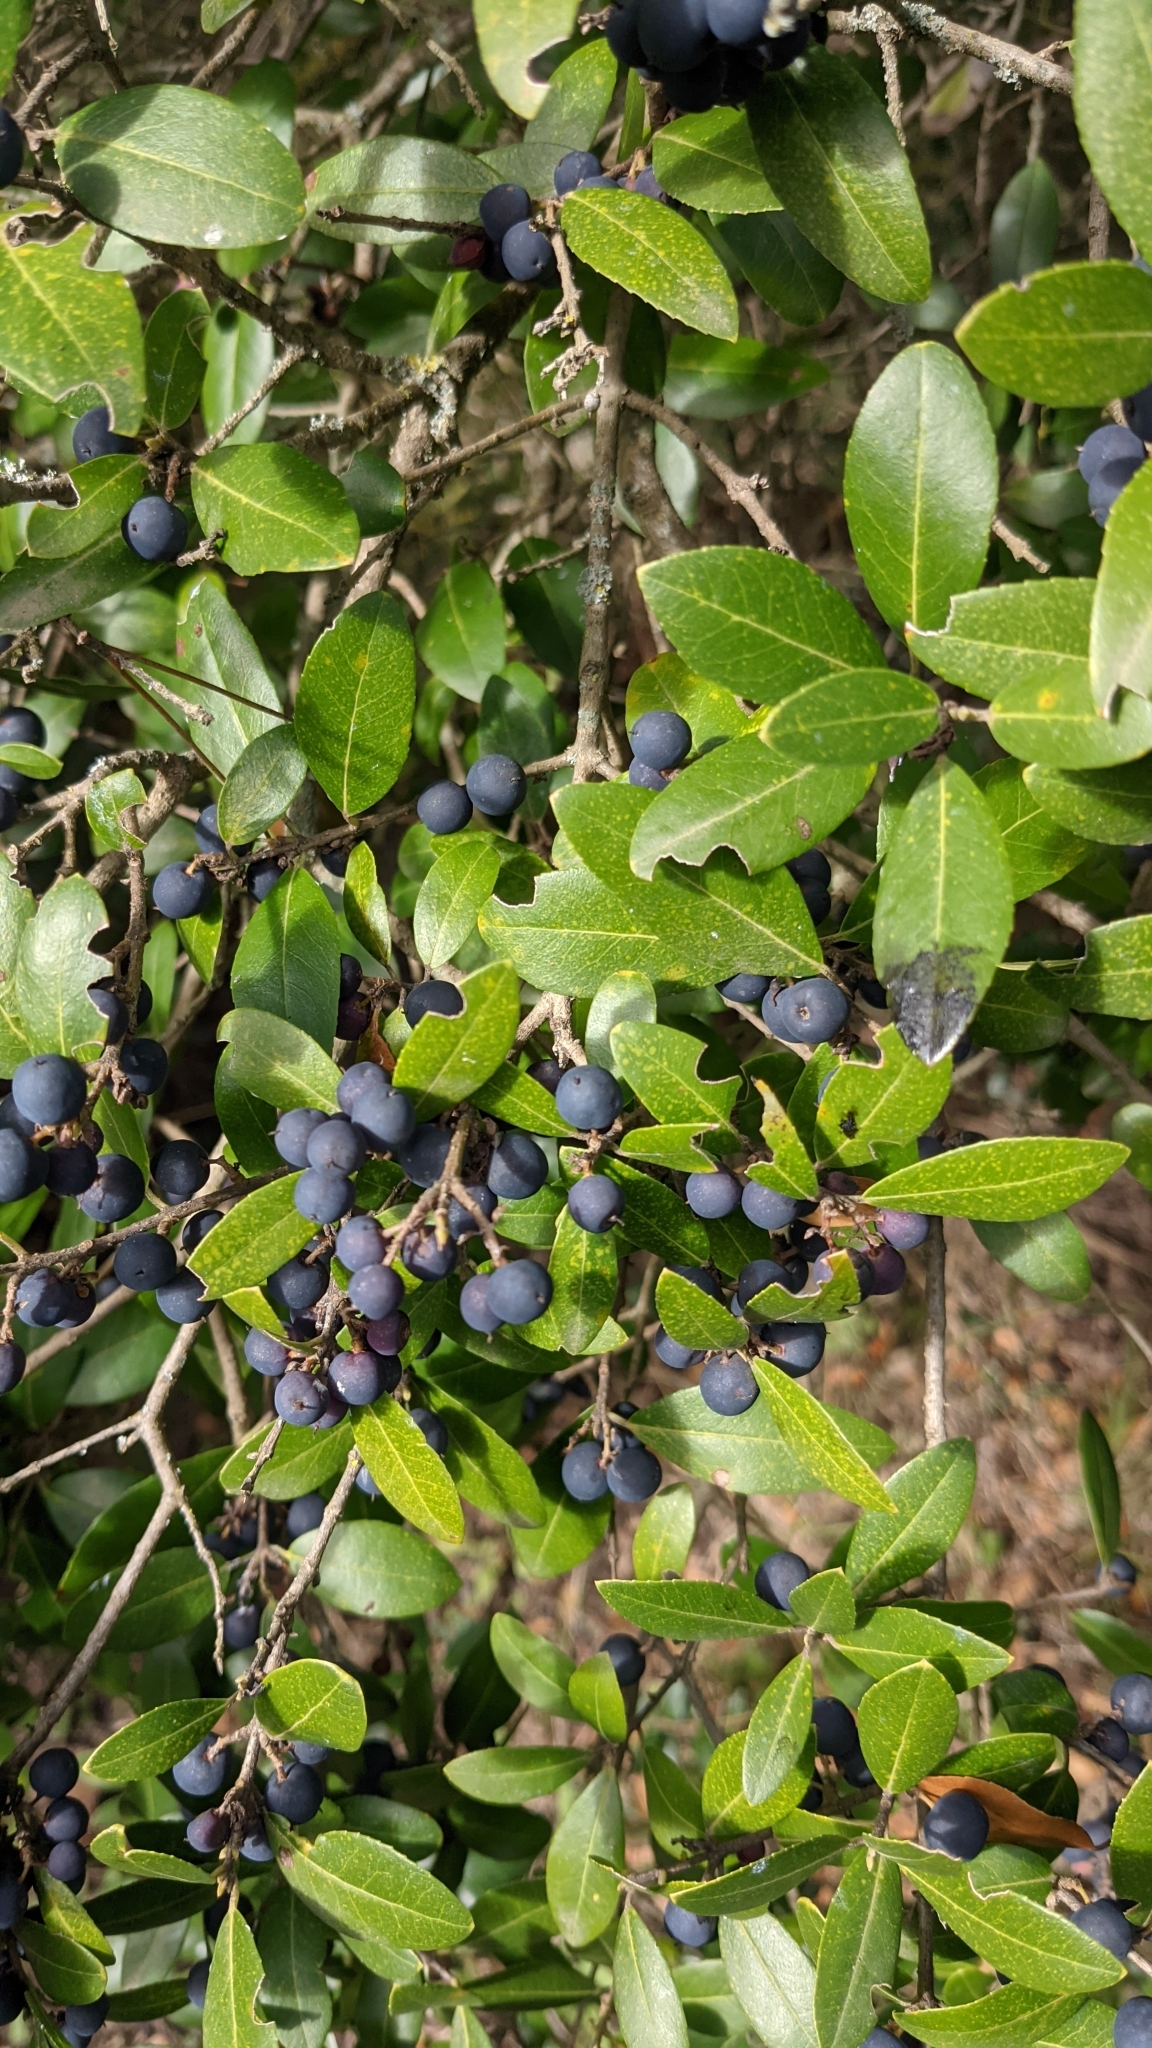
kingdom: Plantae
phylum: Tracheophyta
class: Magnoliopsida
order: Lamiales
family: Oleaceae
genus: Phillyrea
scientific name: Phillyrea latifolia
